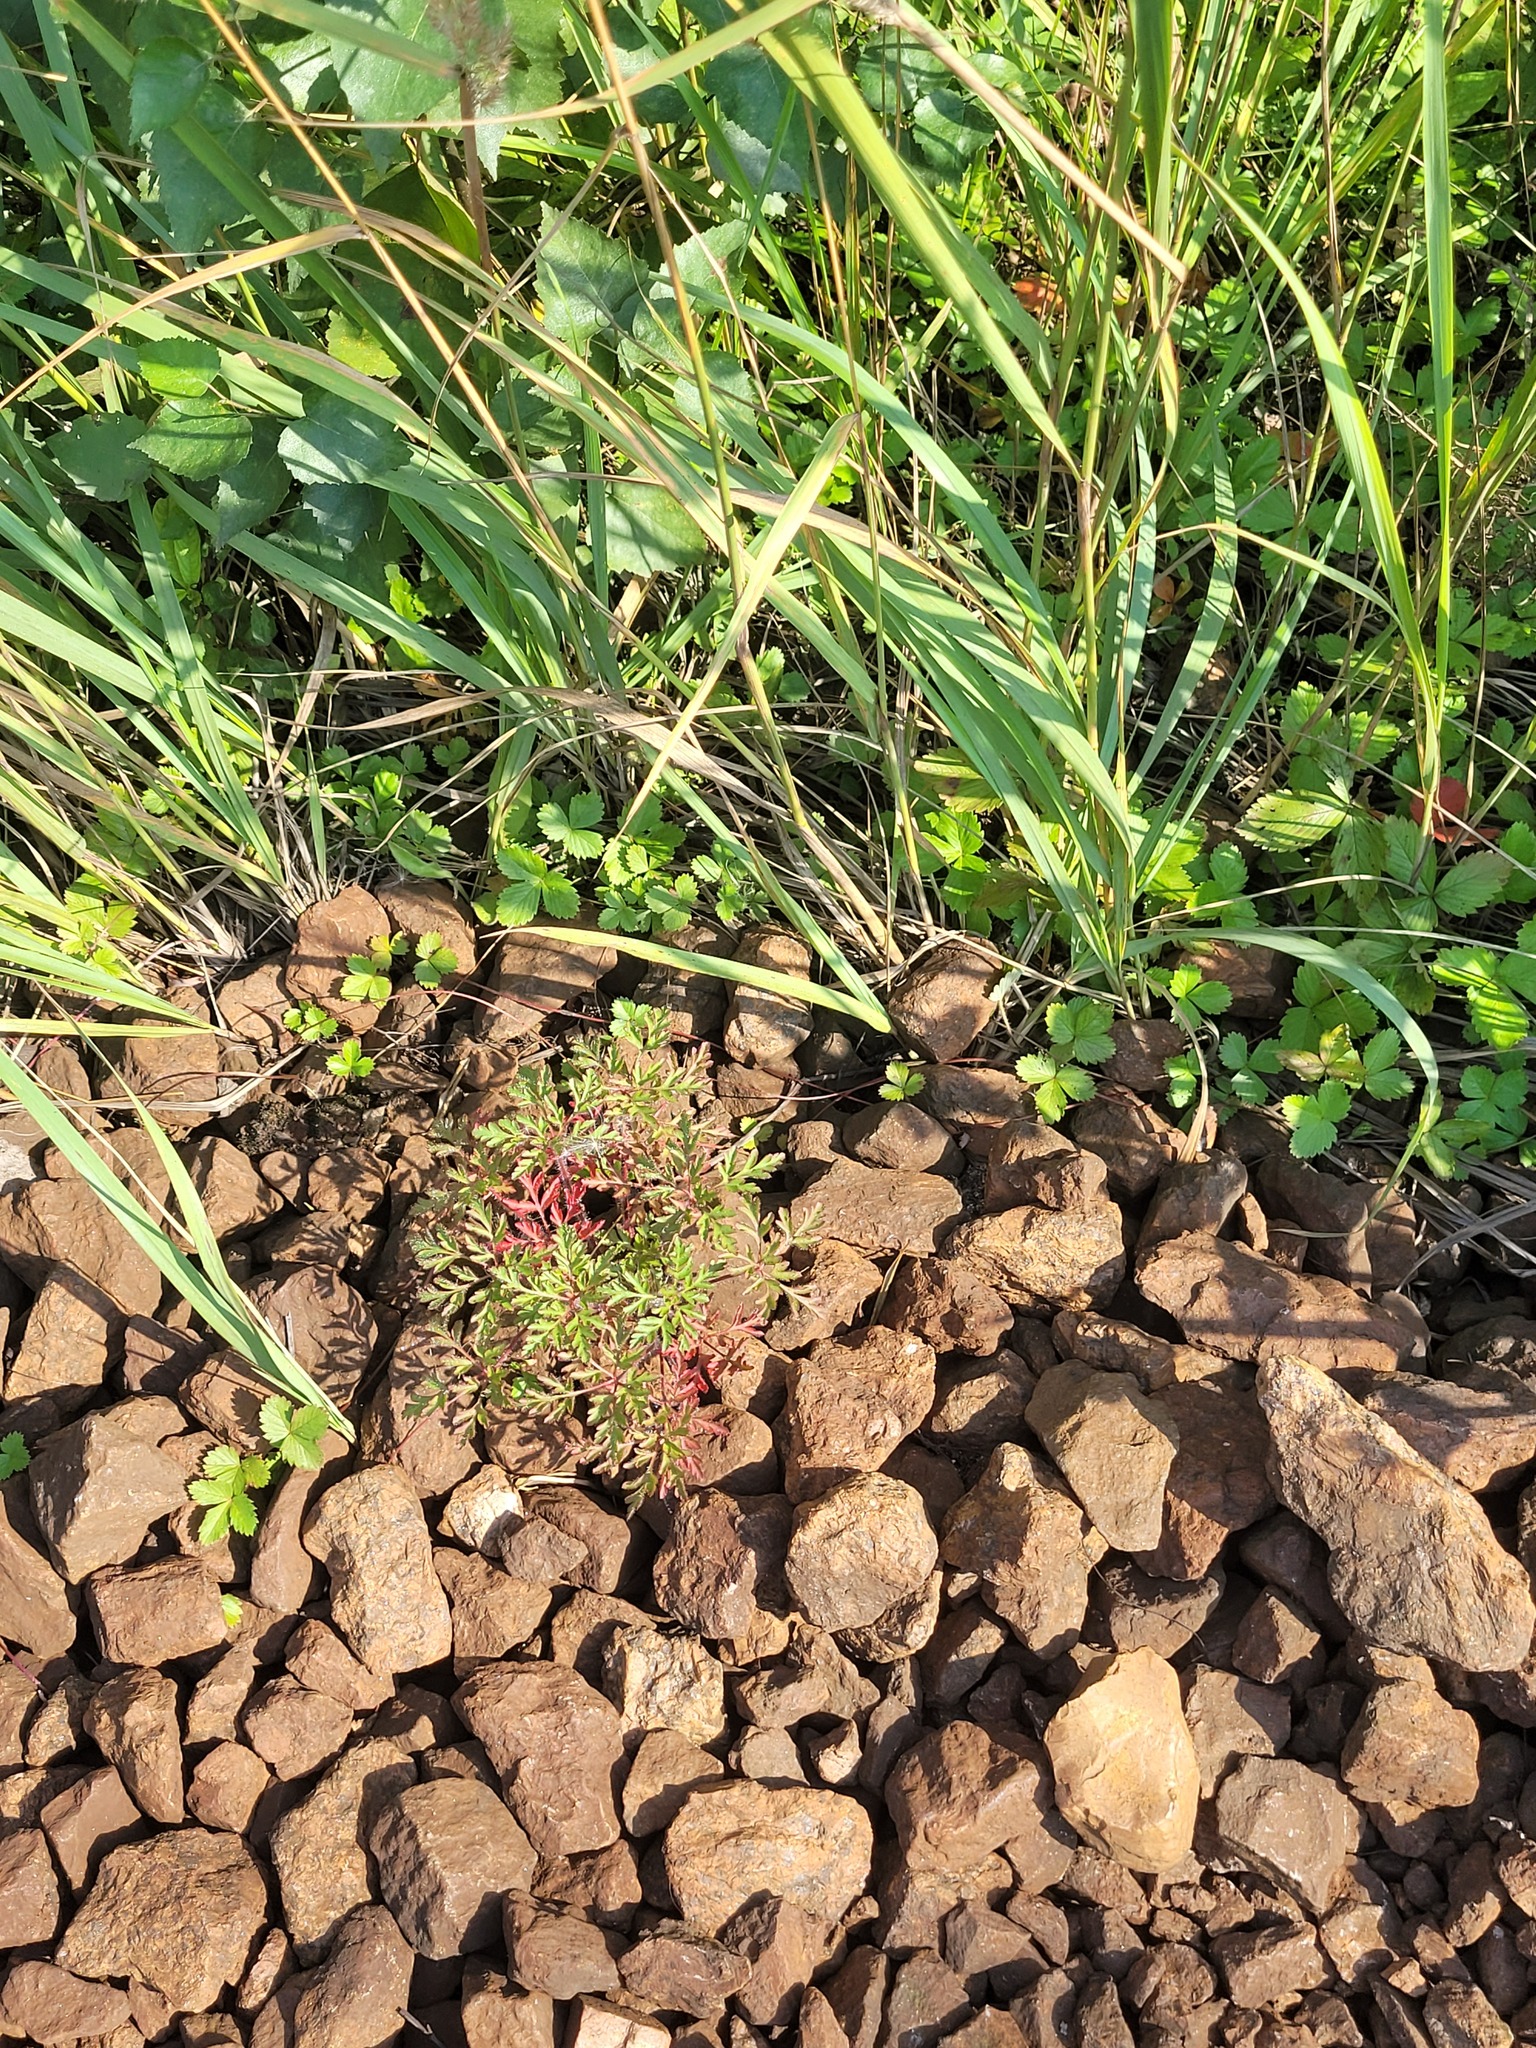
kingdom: Plantae
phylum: Tracheophyta
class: Magnoliopsida
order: Geraniales
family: Geraniaceae
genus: Geranium
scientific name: Geranium robertianum
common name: Herb-robert
